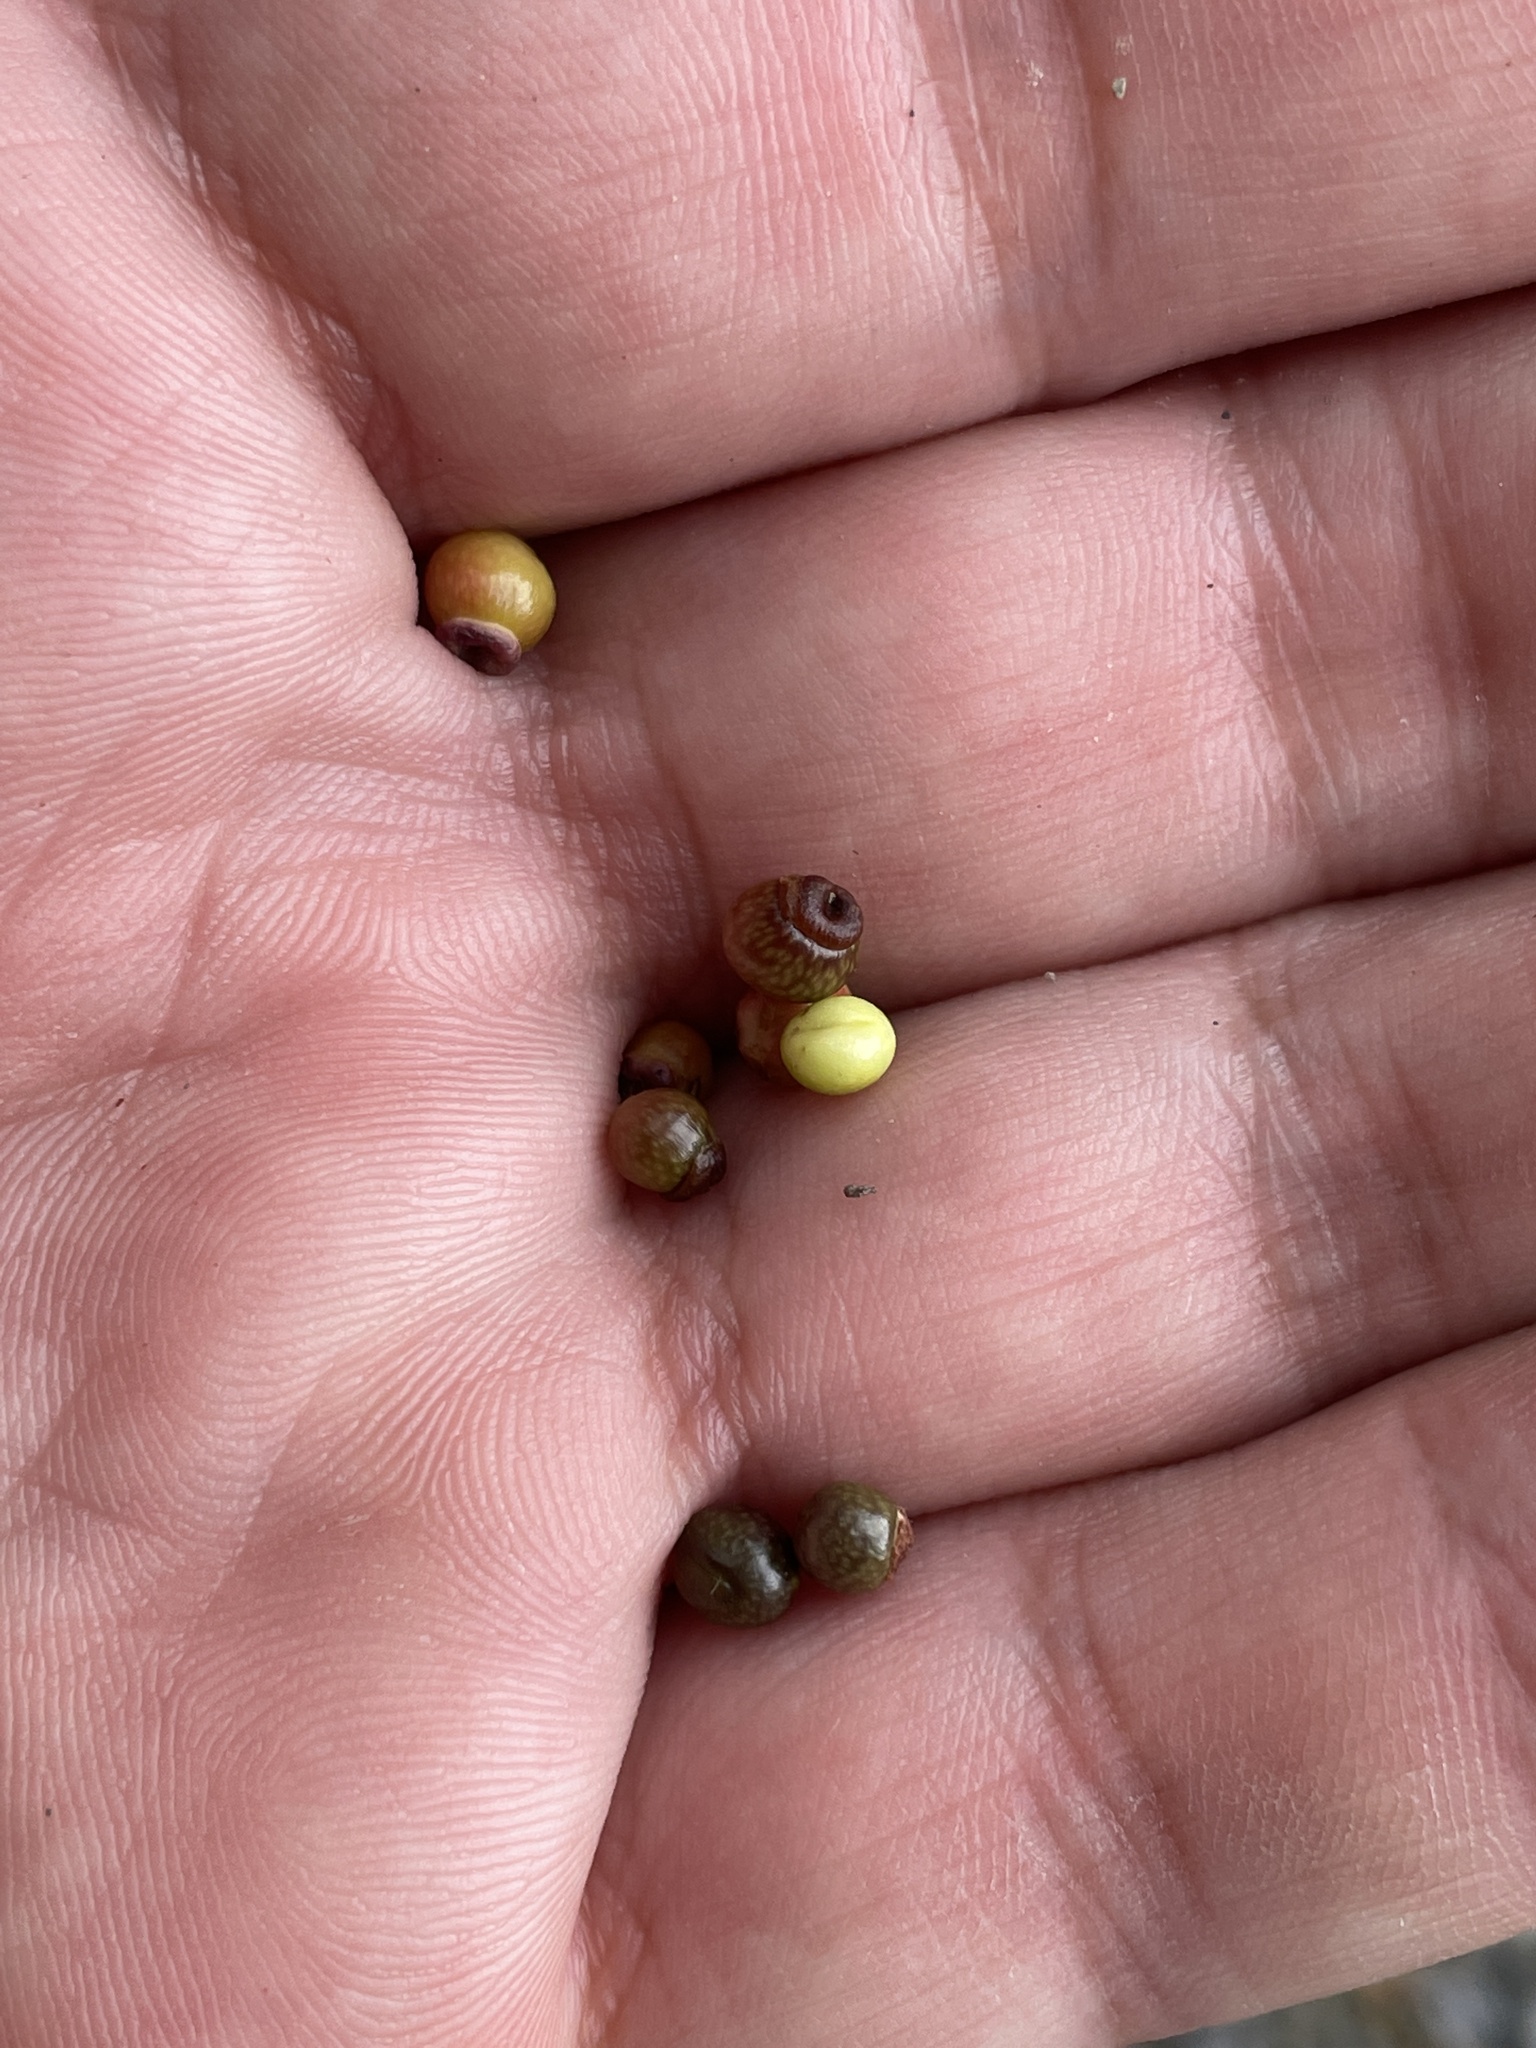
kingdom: Animalia
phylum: Arthropoda
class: Insecta
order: Hymenoptera
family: Cynipidae
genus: Kokkocynips
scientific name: Kokkocynips rileyi
